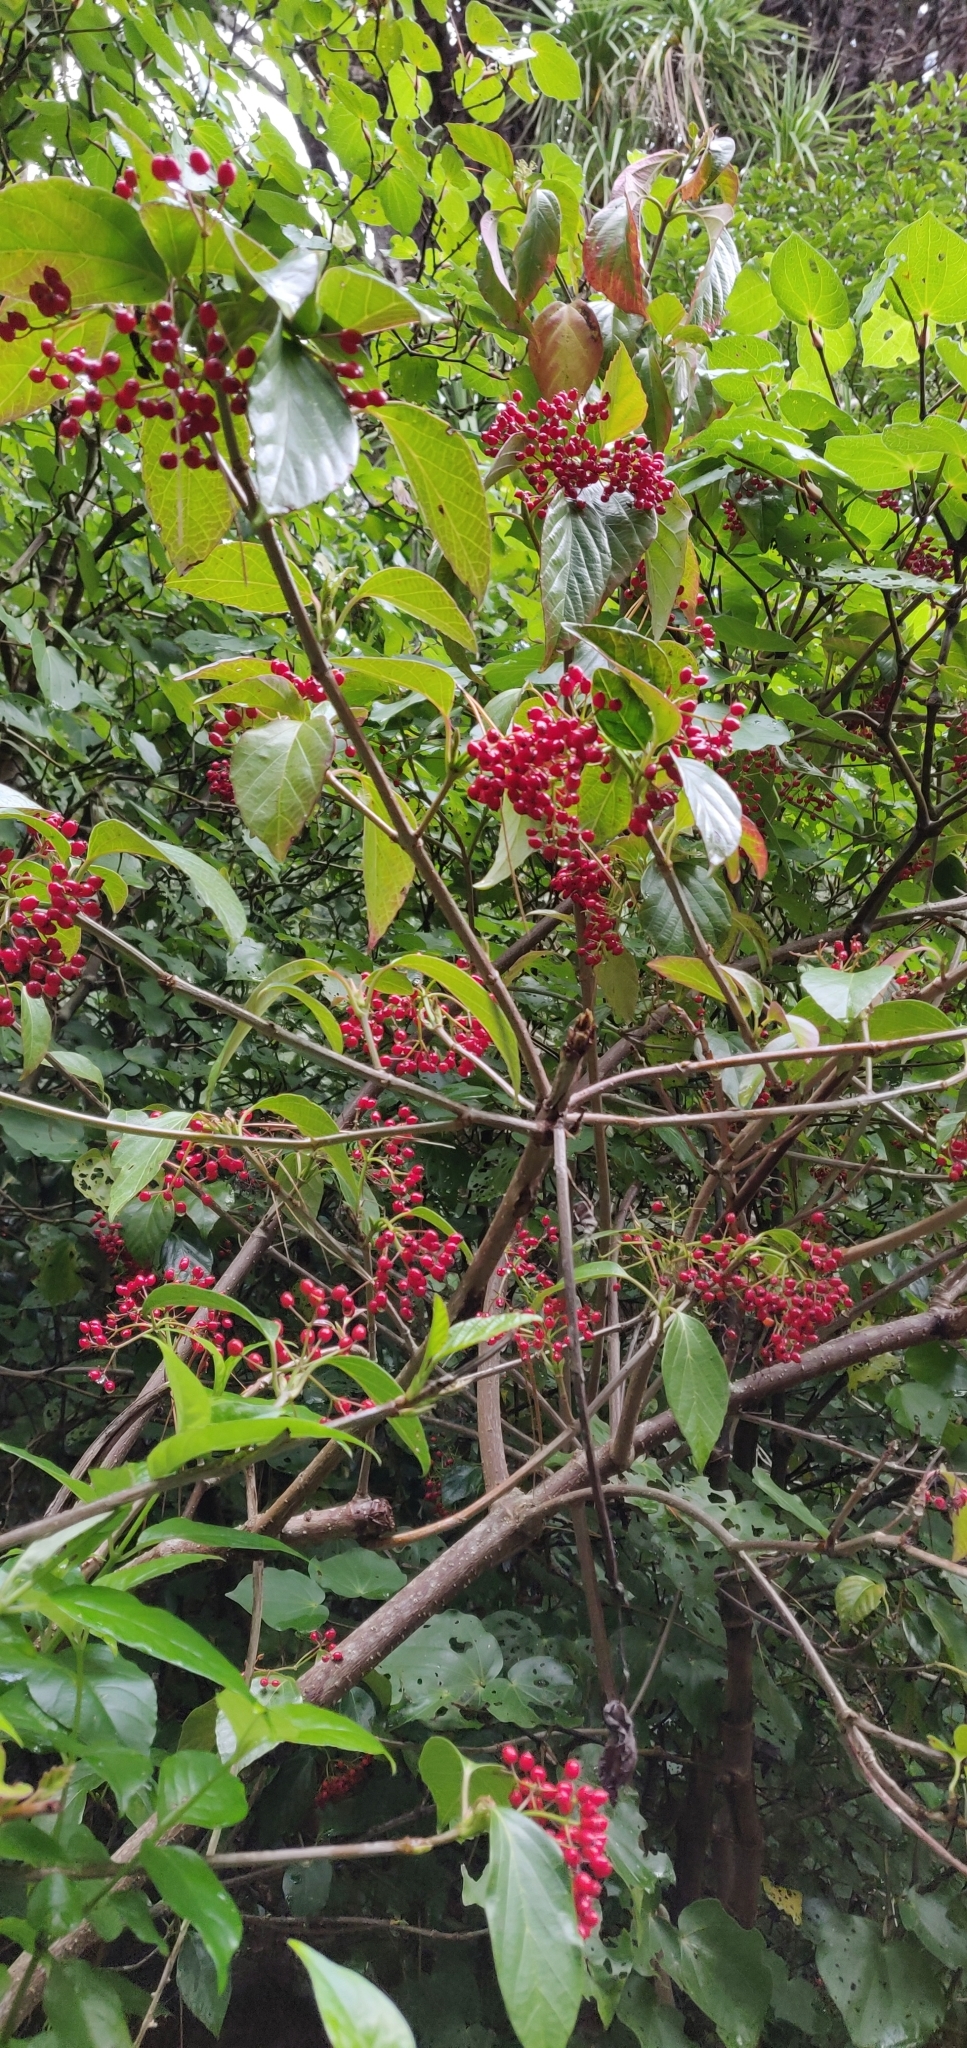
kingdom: Plantae
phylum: Tracheophyta
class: Magnoliopsida
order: Dipsacales
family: Viburnaceae
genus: Viburnum
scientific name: Viburnum japonicum
